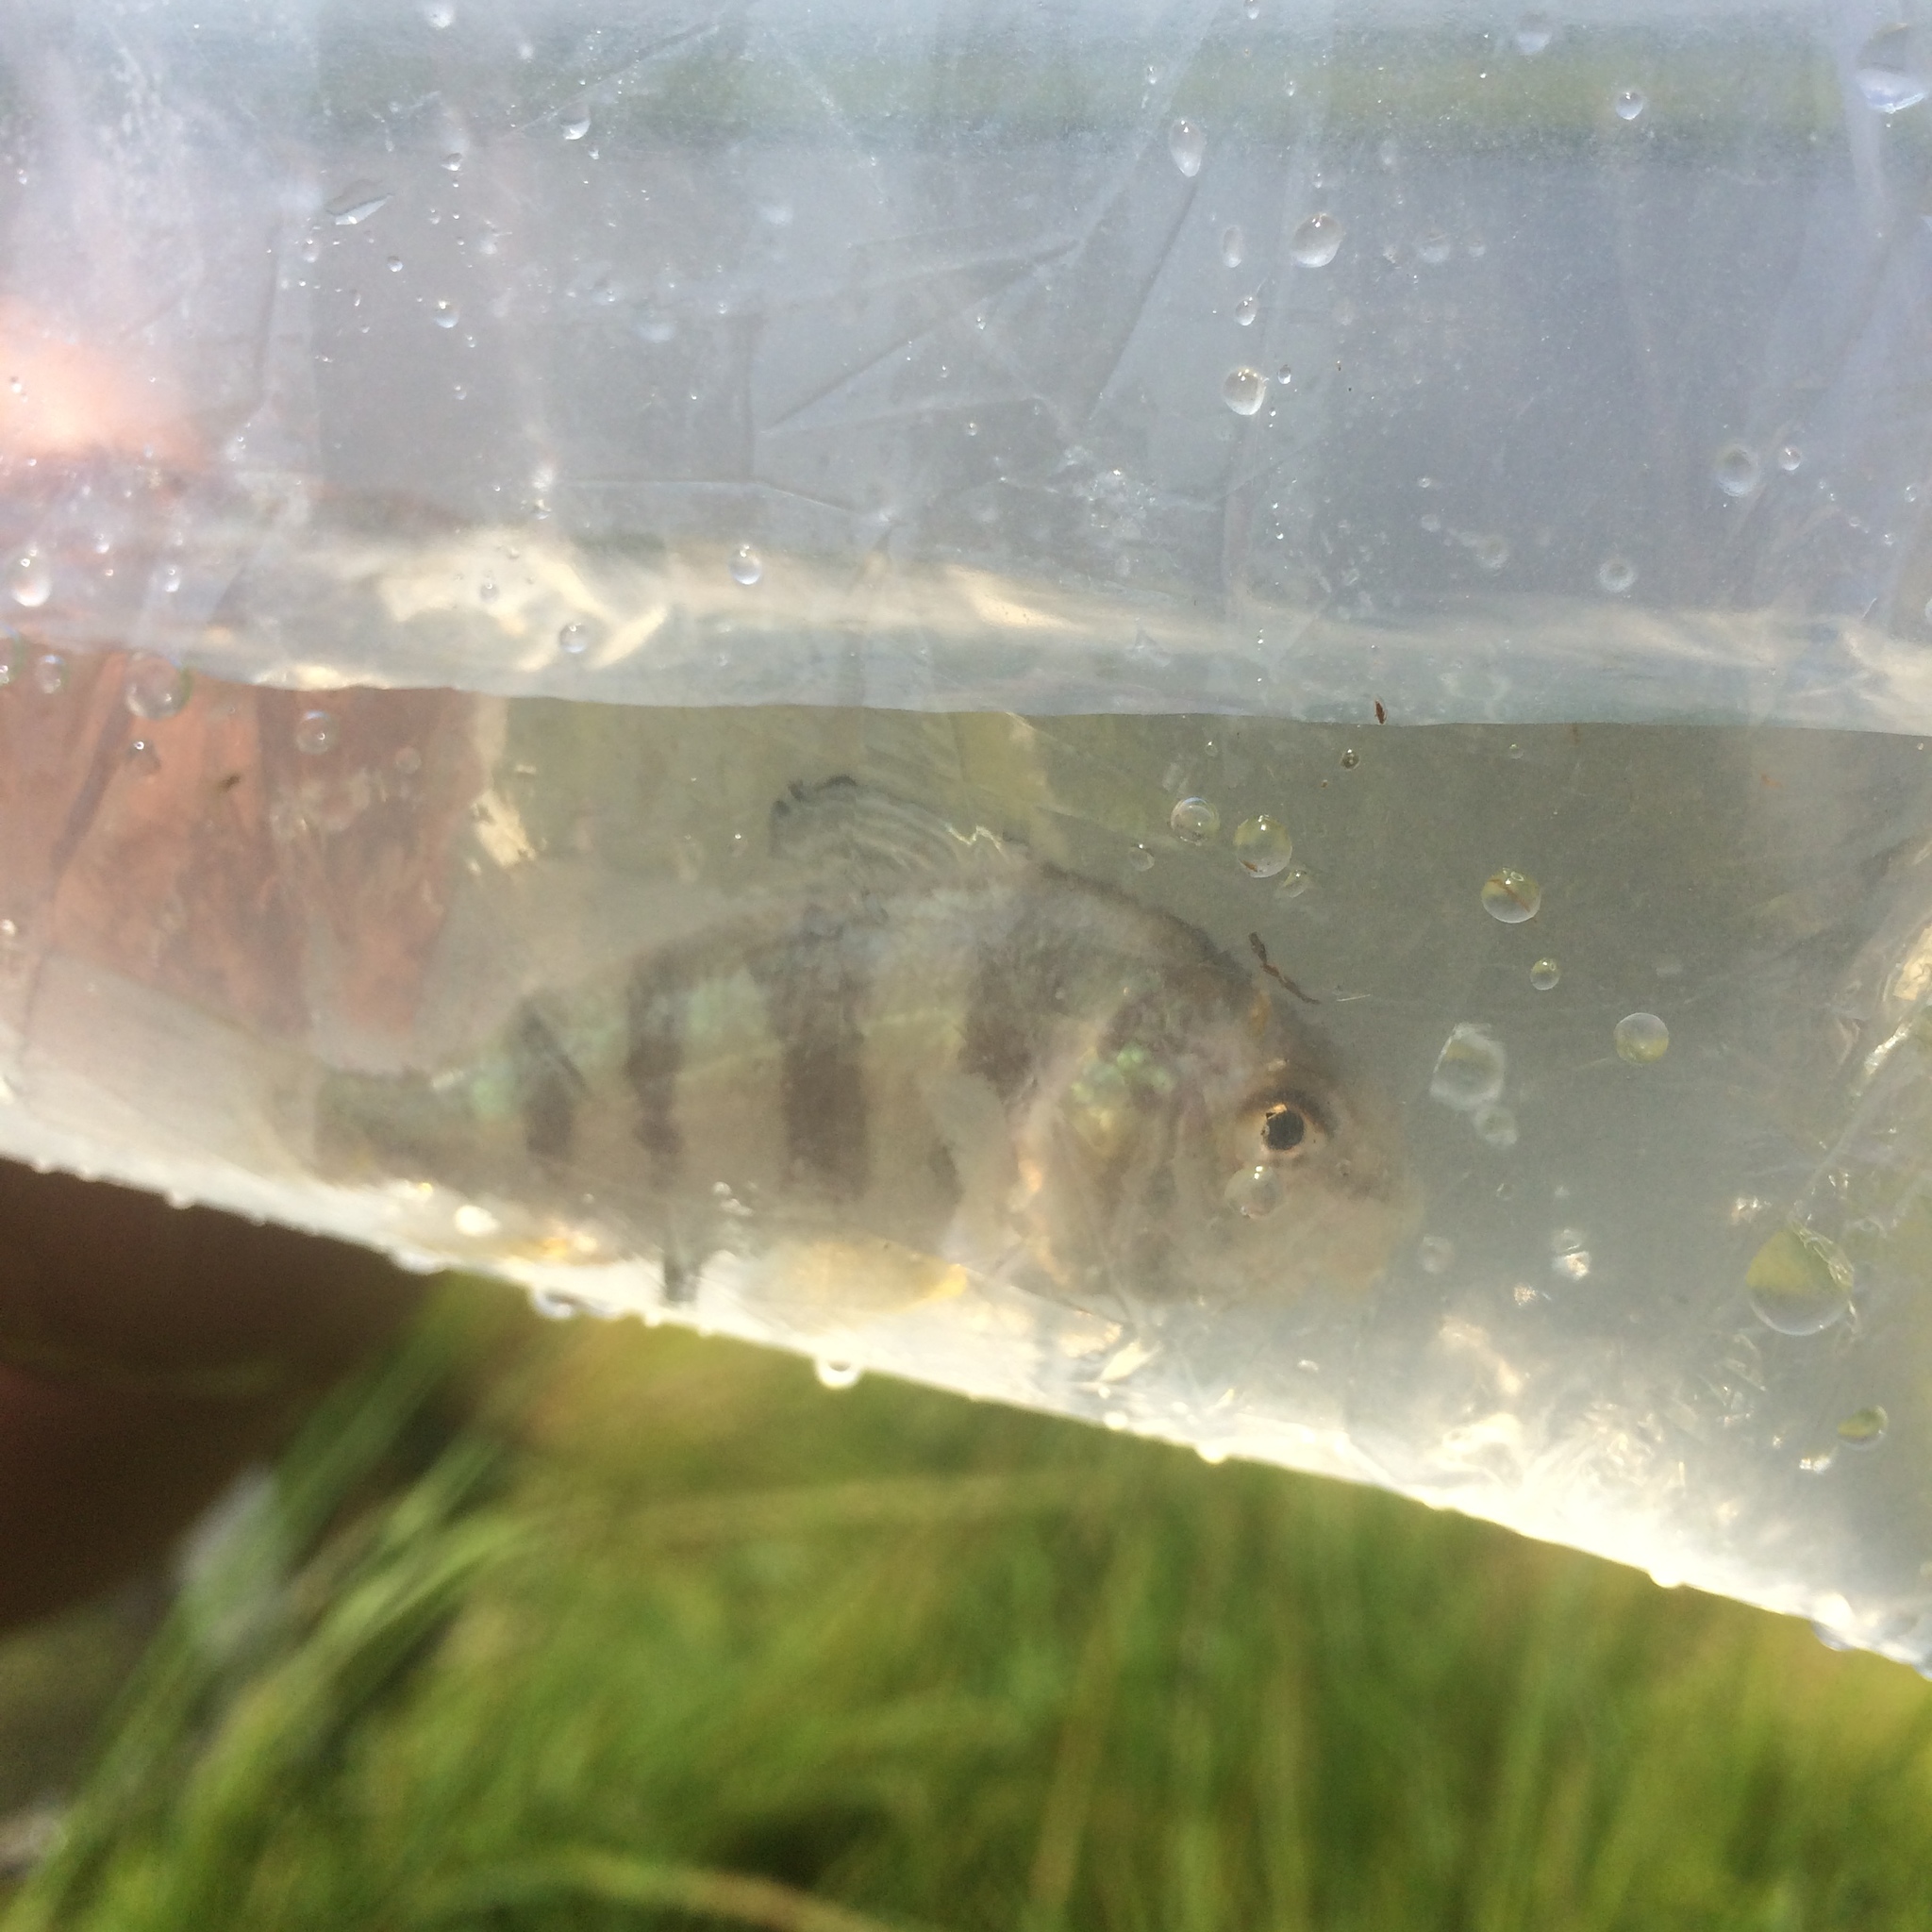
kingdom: Animalia
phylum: Chordata
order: Perciformes
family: Sciaenidae
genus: Pogonias
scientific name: Pogonias cromis
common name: Black drum
